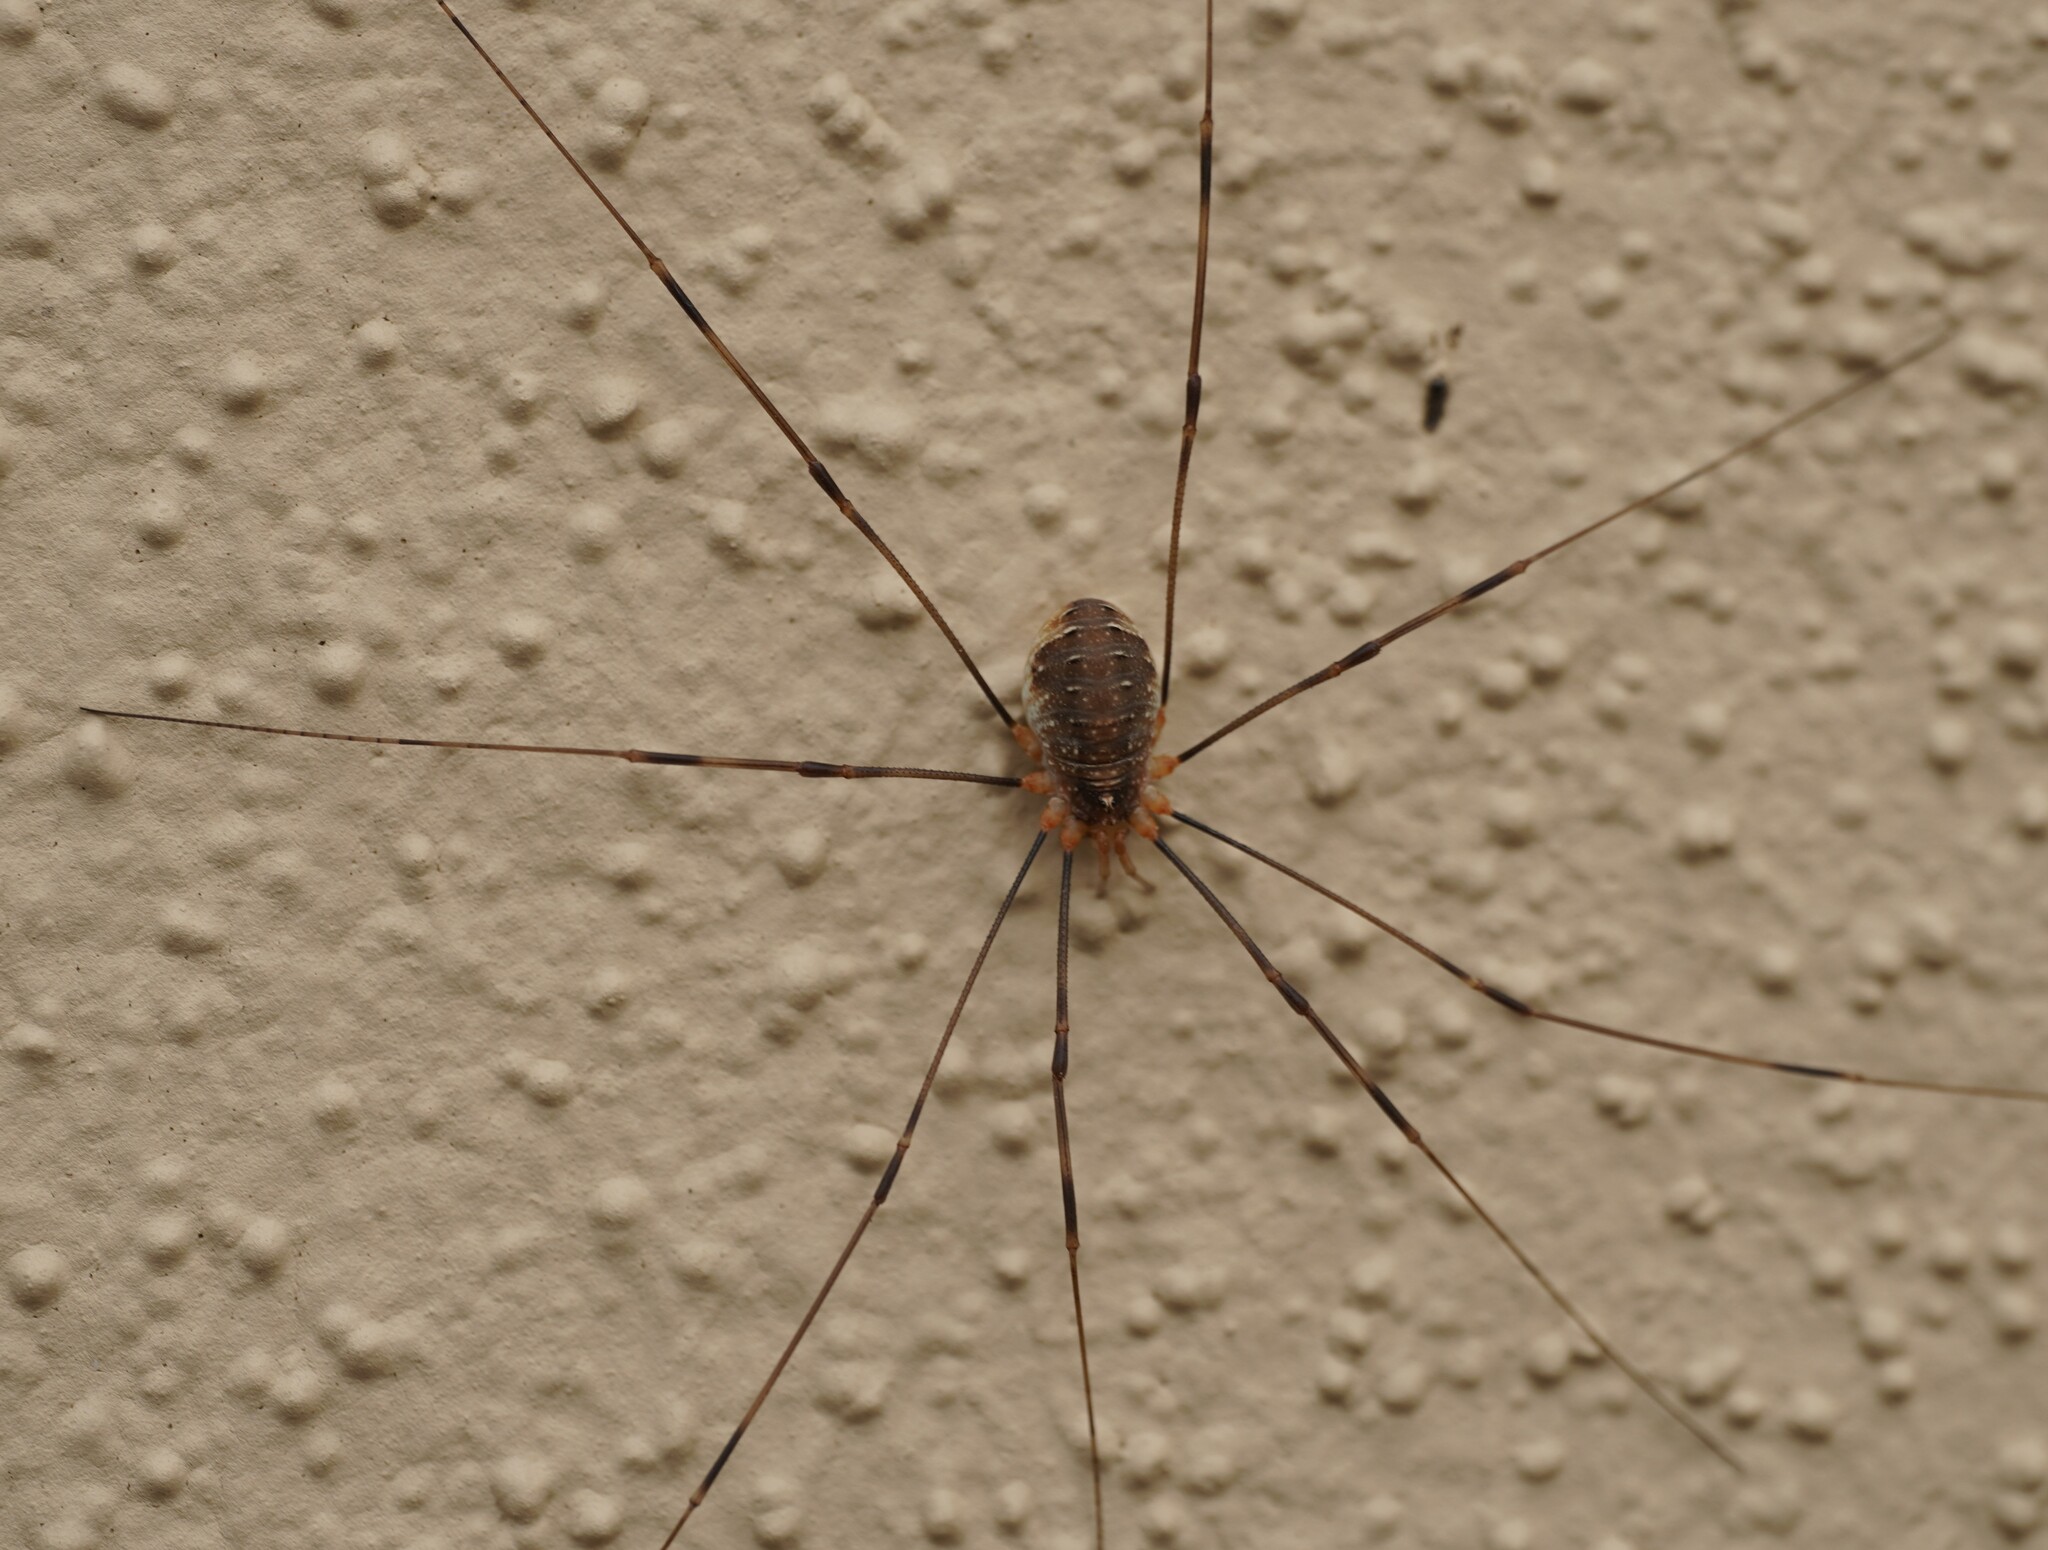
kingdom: Animalia
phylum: Arthropoda
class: Arachnida
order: Opiliones
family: Phalangiidae
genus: Opilio
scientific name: Opilio canestrinii
